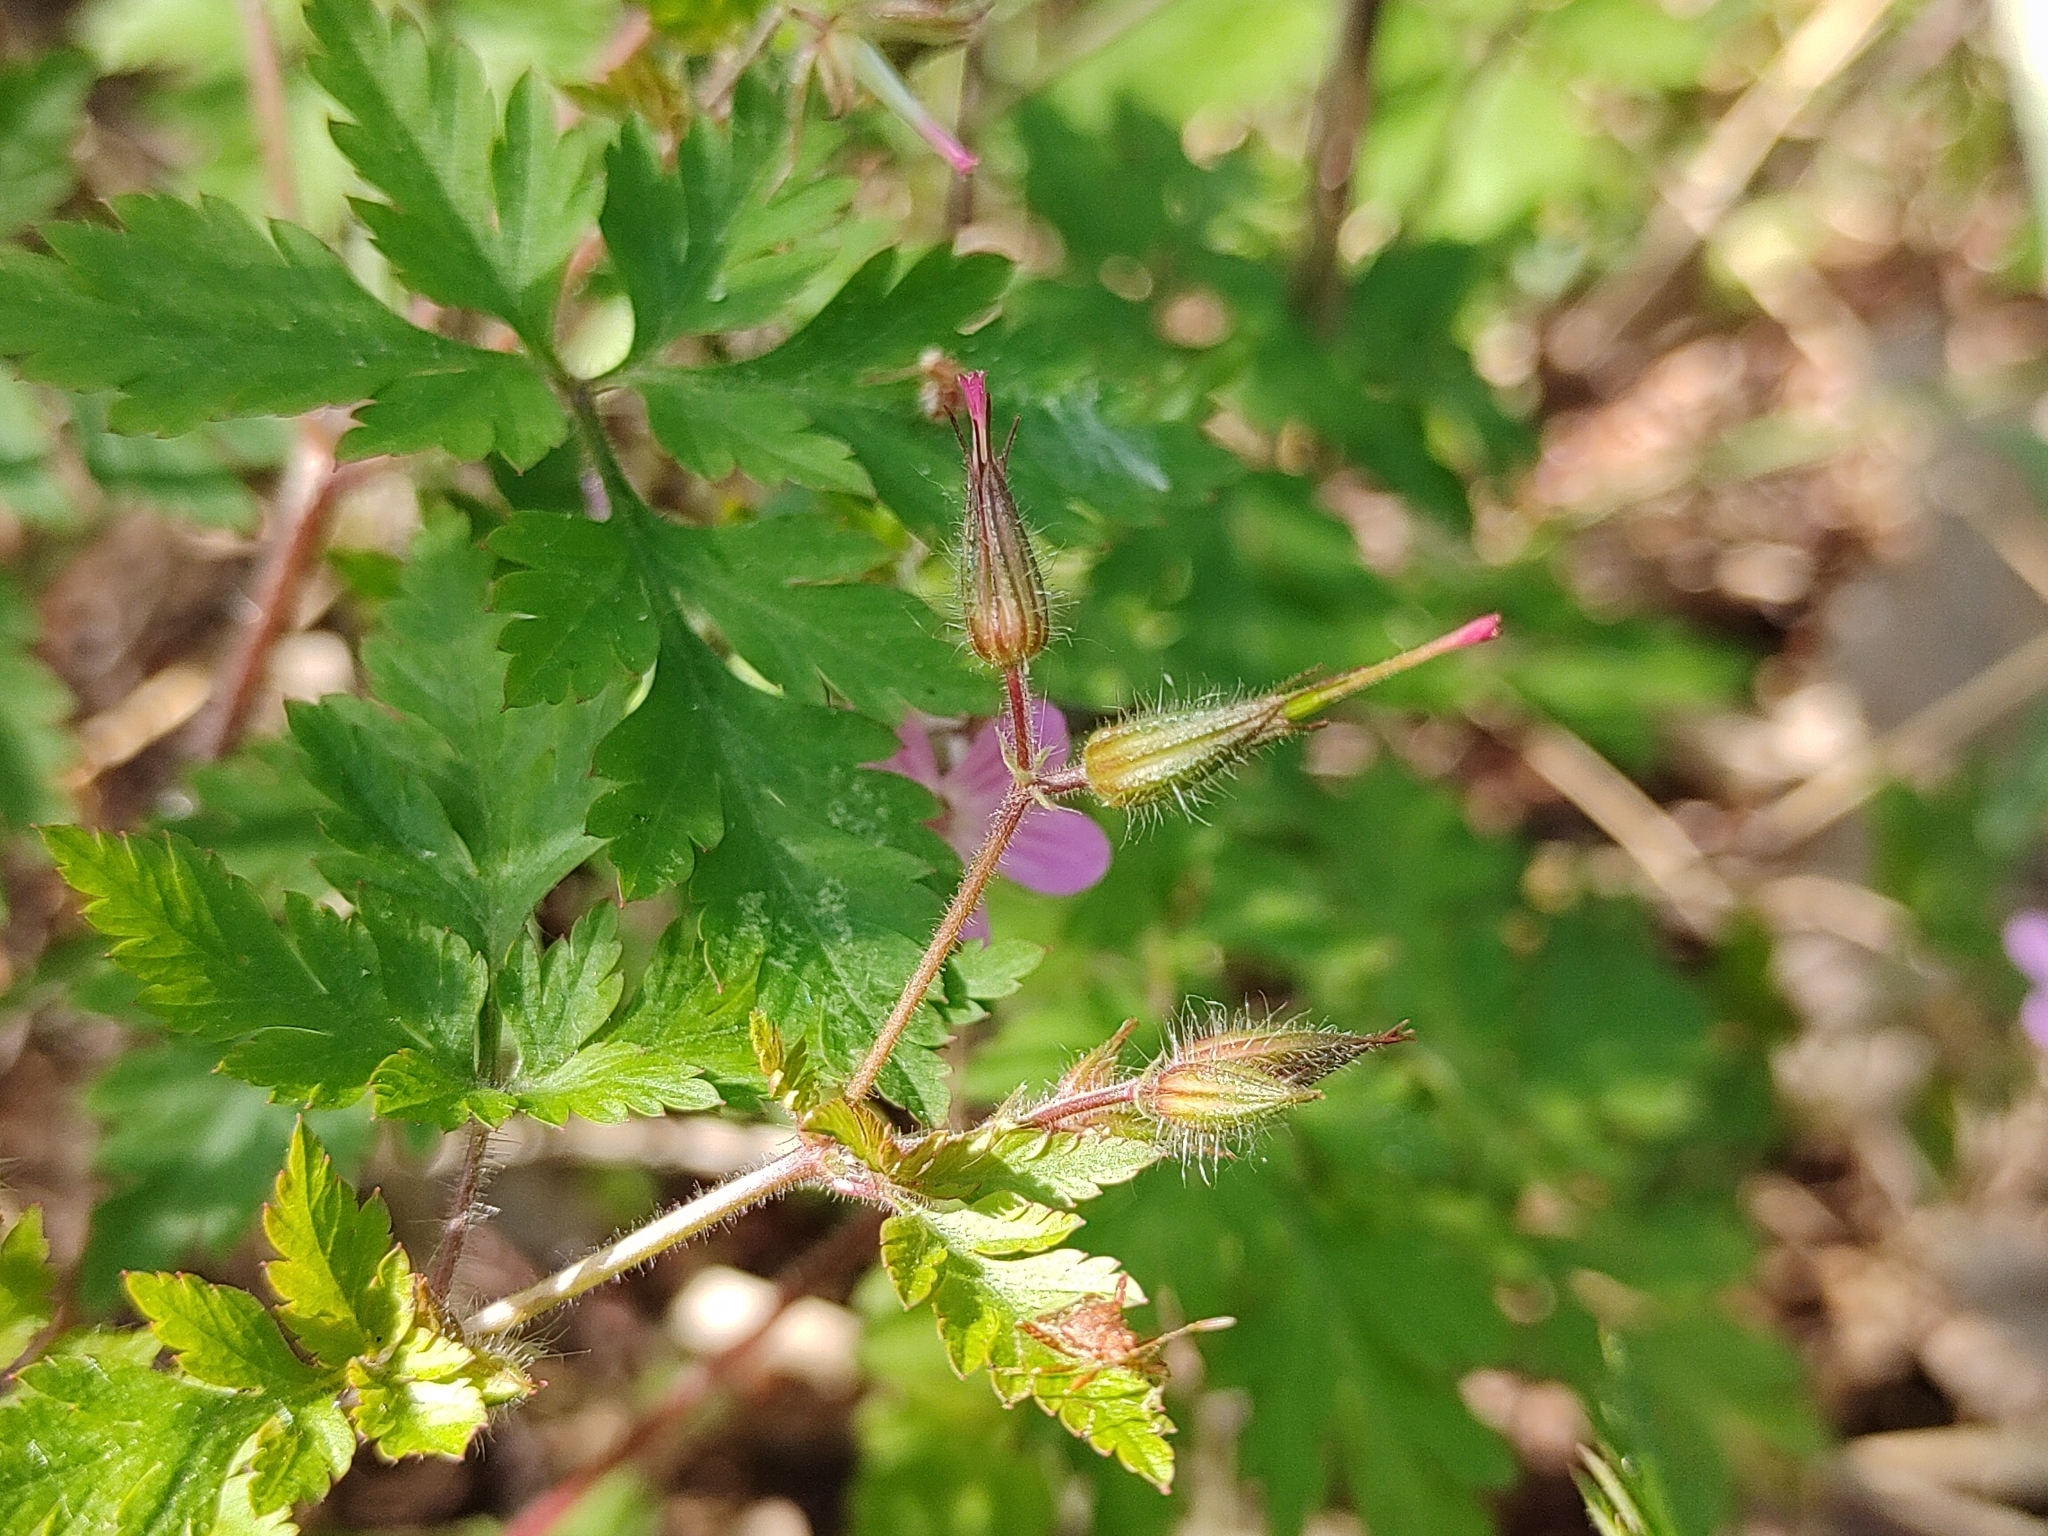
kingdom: Plantae
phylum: Tracheophyta
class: Magnoliopsida
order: Geraniales
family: Geraniaceae
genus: Geranium
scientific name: Geranium robertianum
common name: Herb-robert
